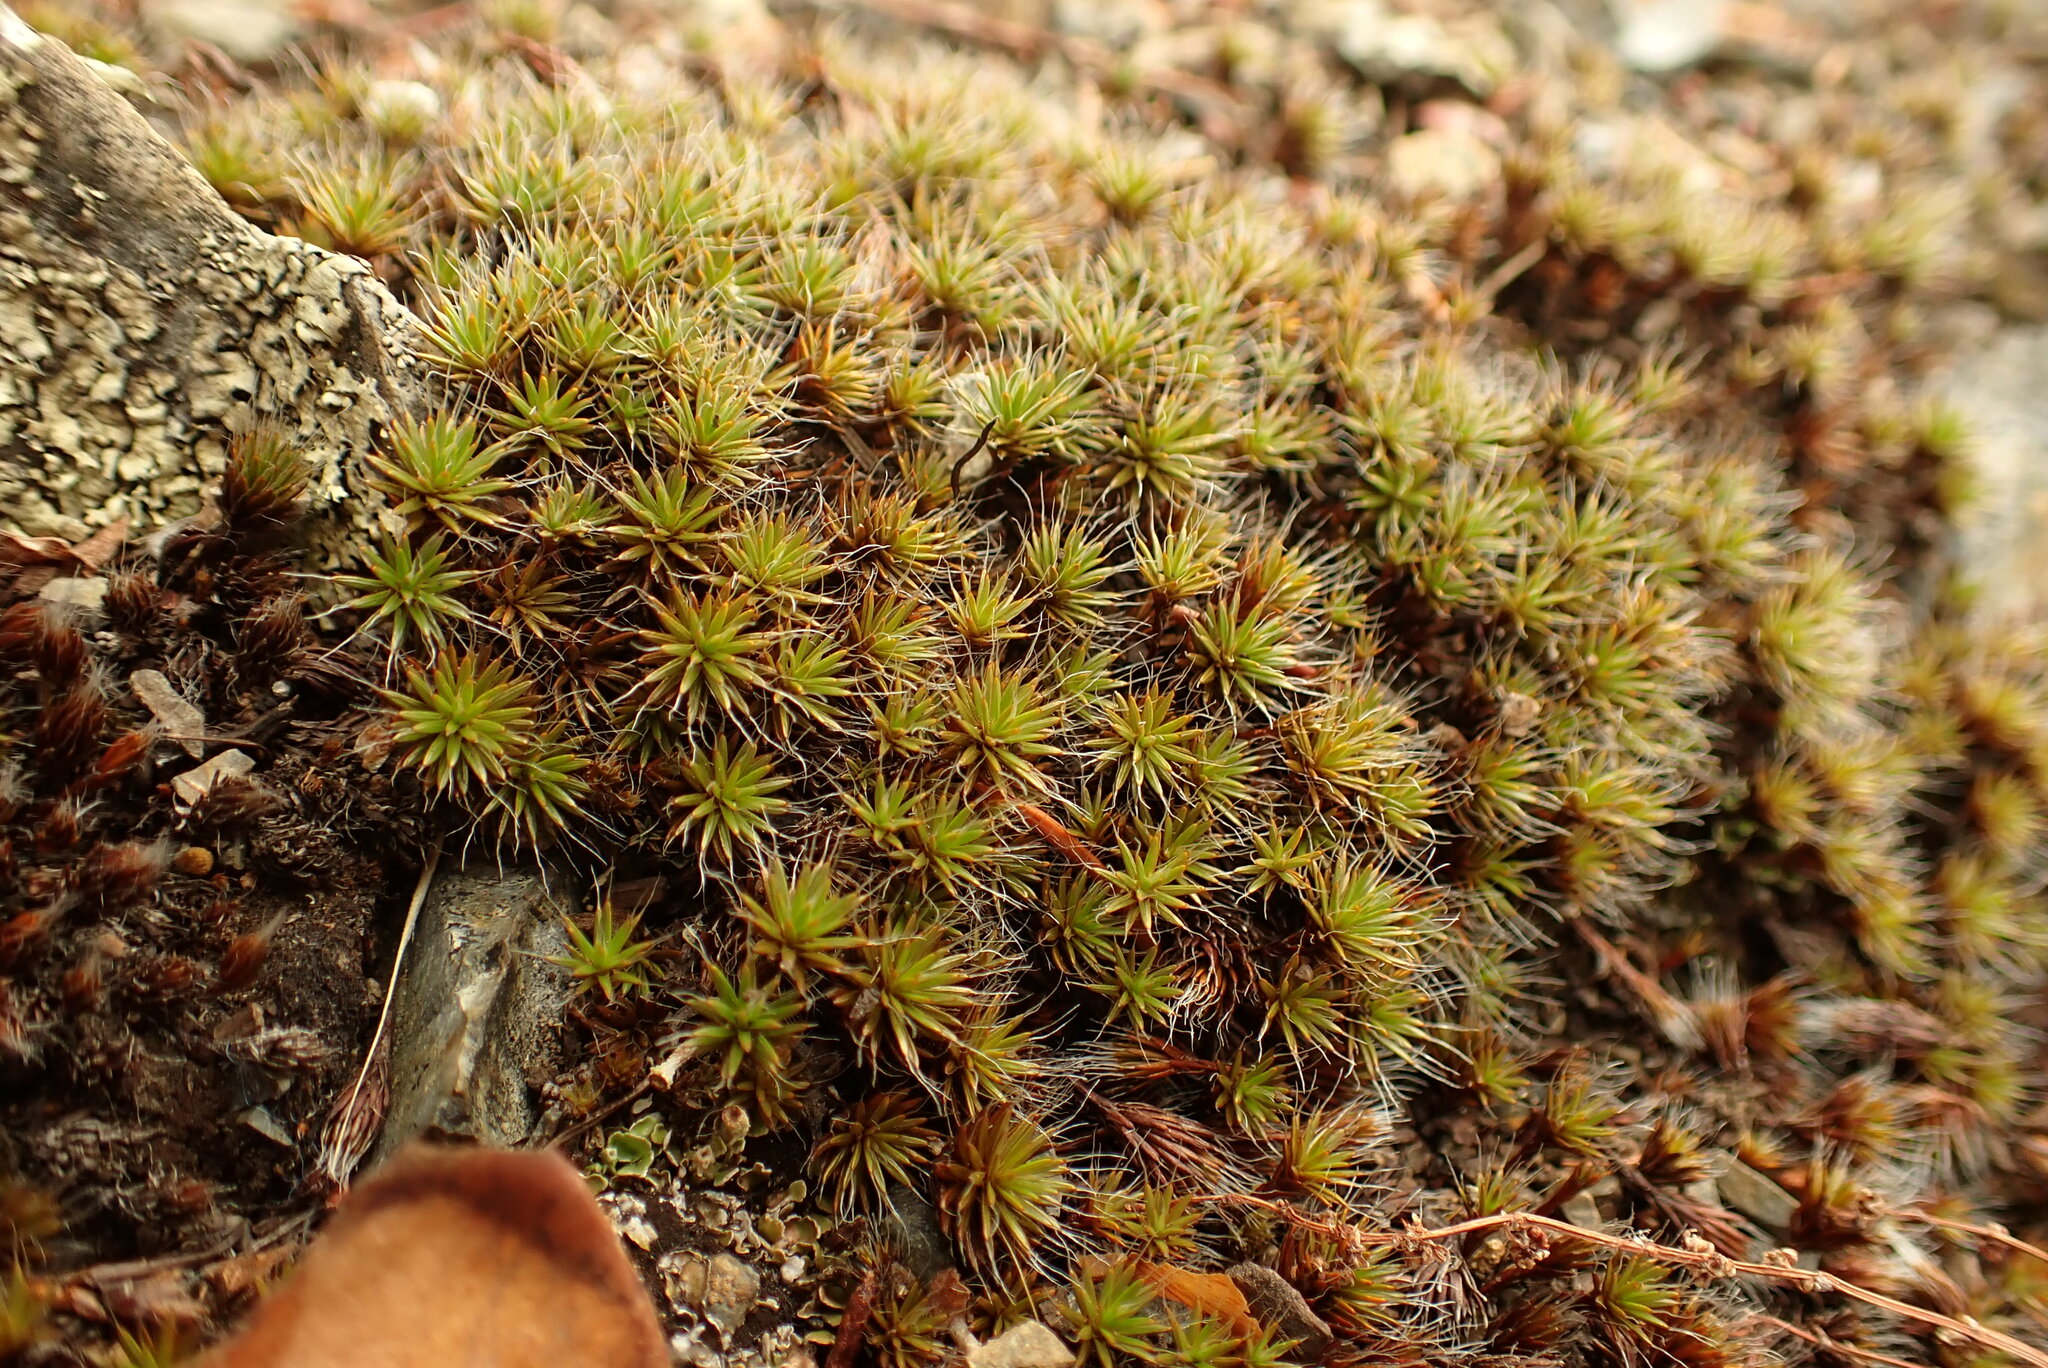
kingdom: Plantae
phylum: Bryophyta
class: Polytrichopsida
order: Polytrichales
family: Polytrichaceae
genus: Polytrichum
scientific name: Polytrichum piliferum
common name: Bristly haircap
